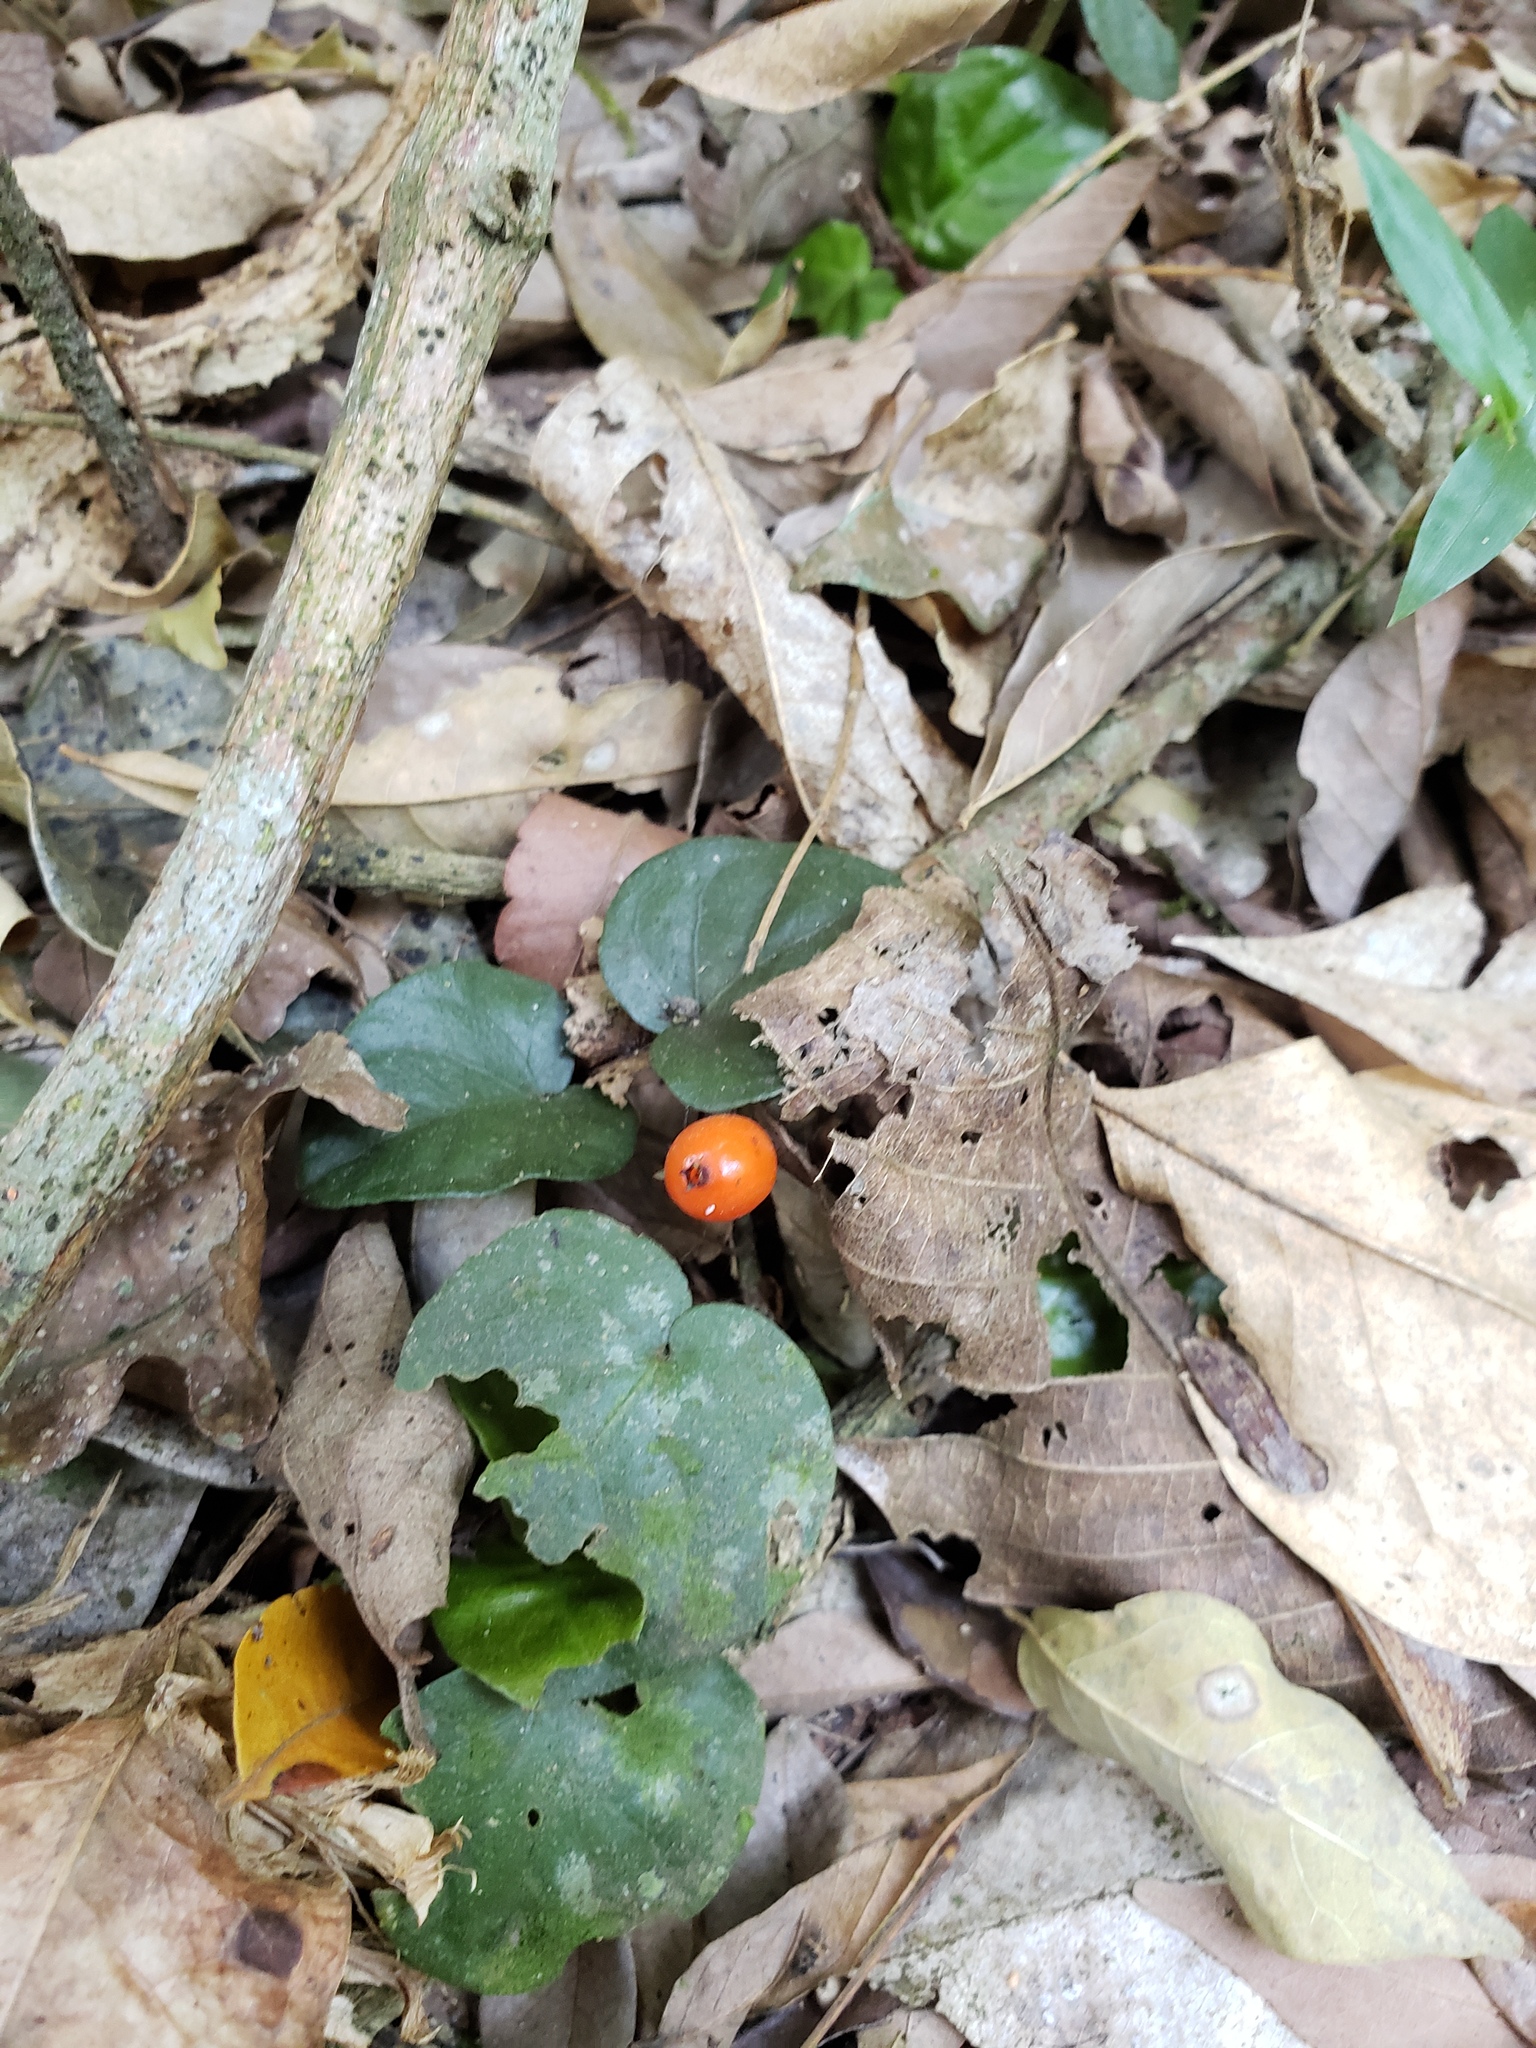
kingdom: Plantae
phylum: Tracheophyta
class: Magnoliopsida
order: Gentianales
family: Rubiaceae
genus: Geophila
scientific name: Geophila repens
